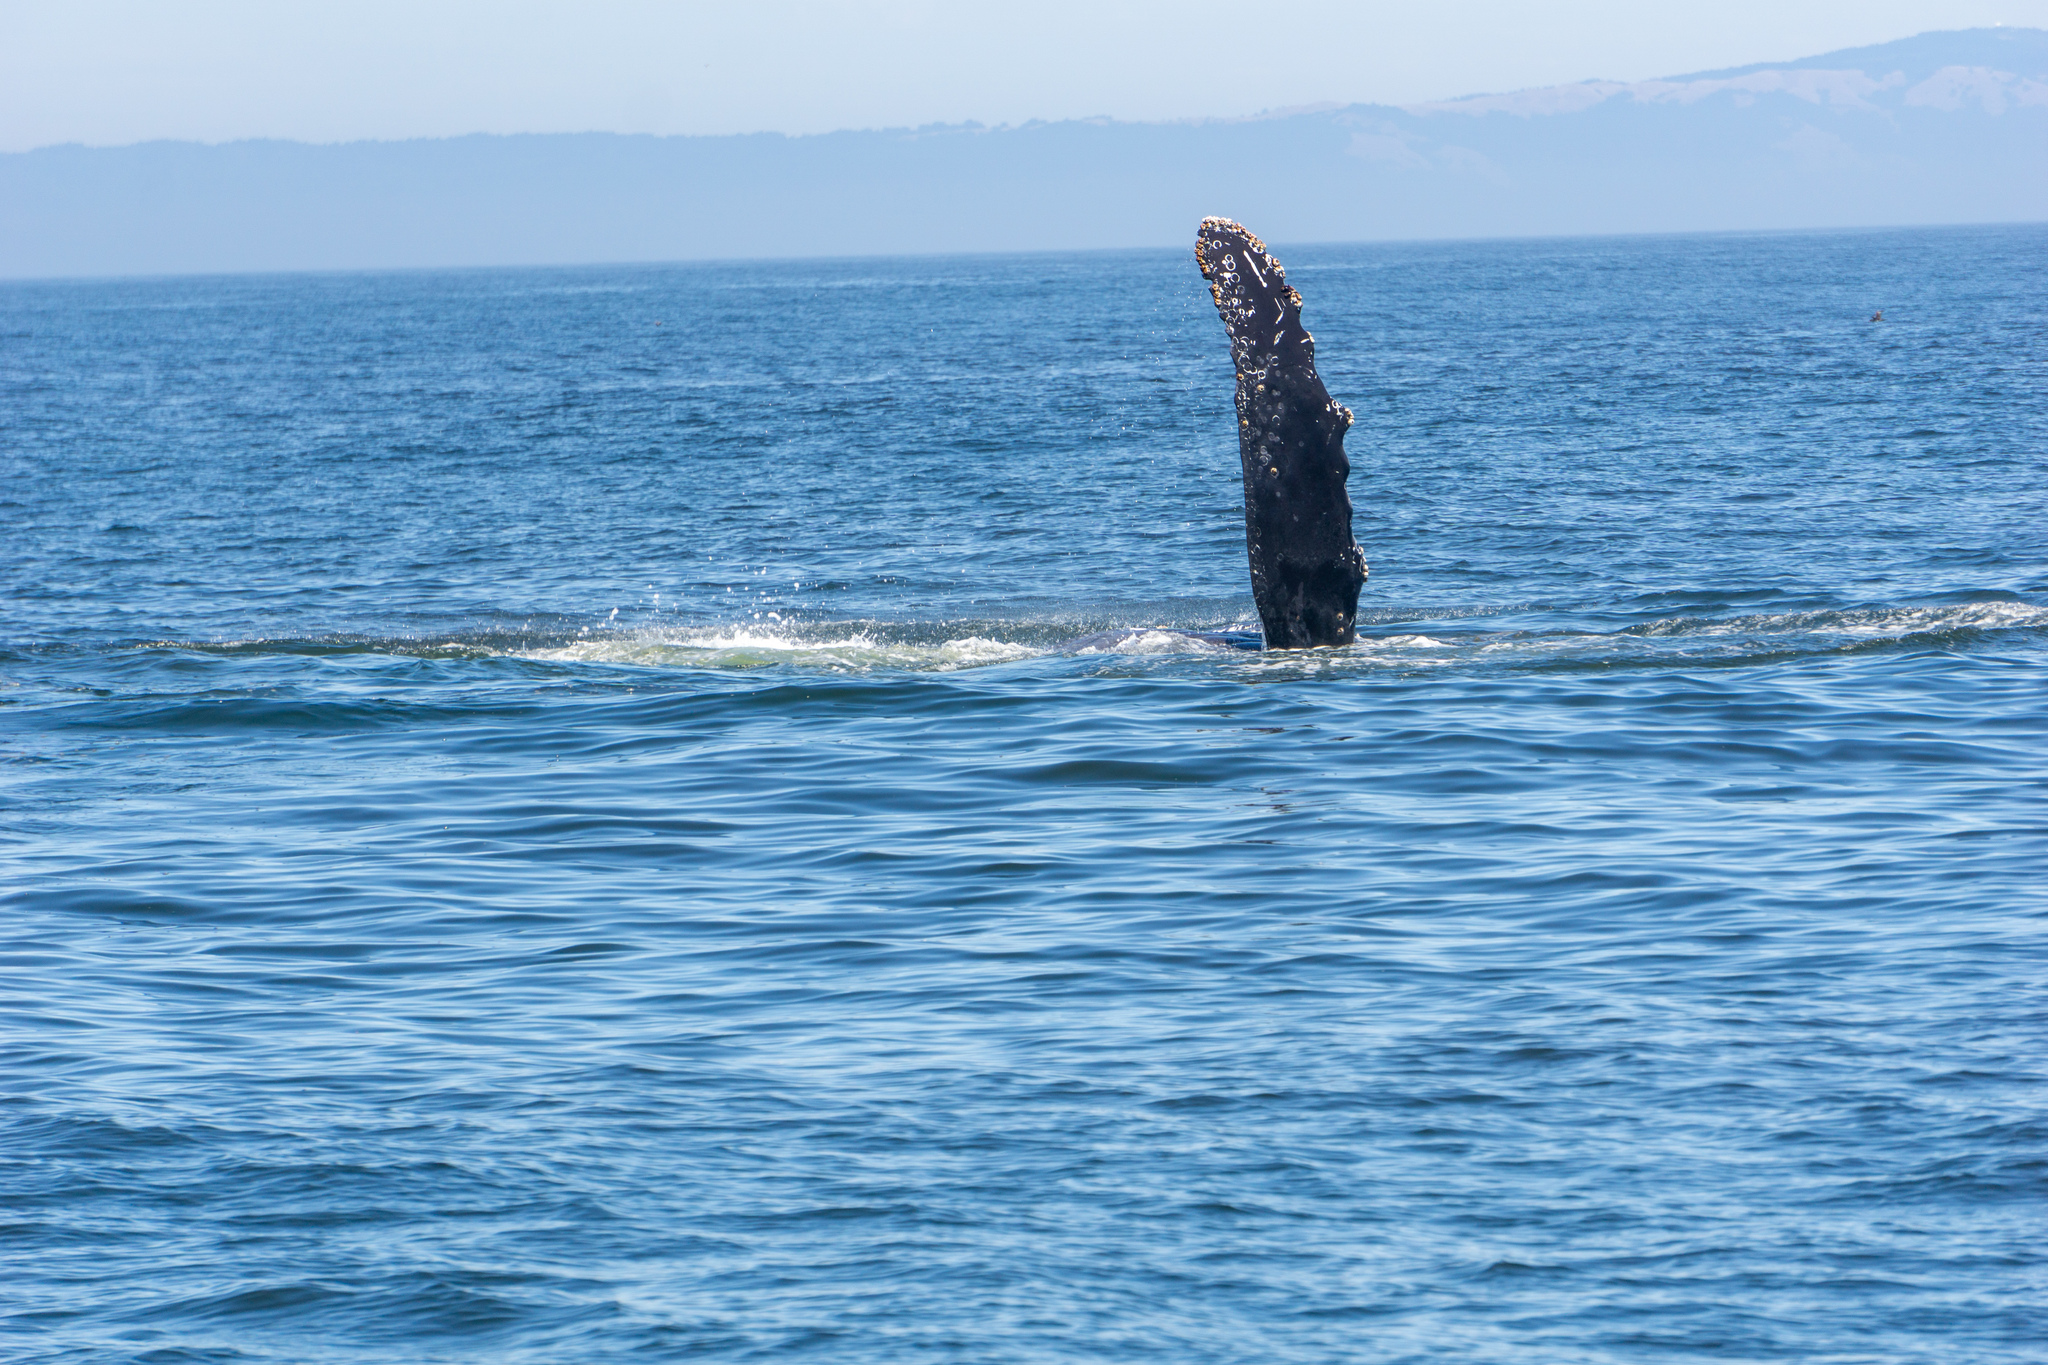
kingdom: Animalia
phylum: Chordata
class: Mammalia
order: Cetacea
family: Balaenopteridae
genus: Megaptera
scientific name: Megaptera novaeangliae
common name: Humpback whale
